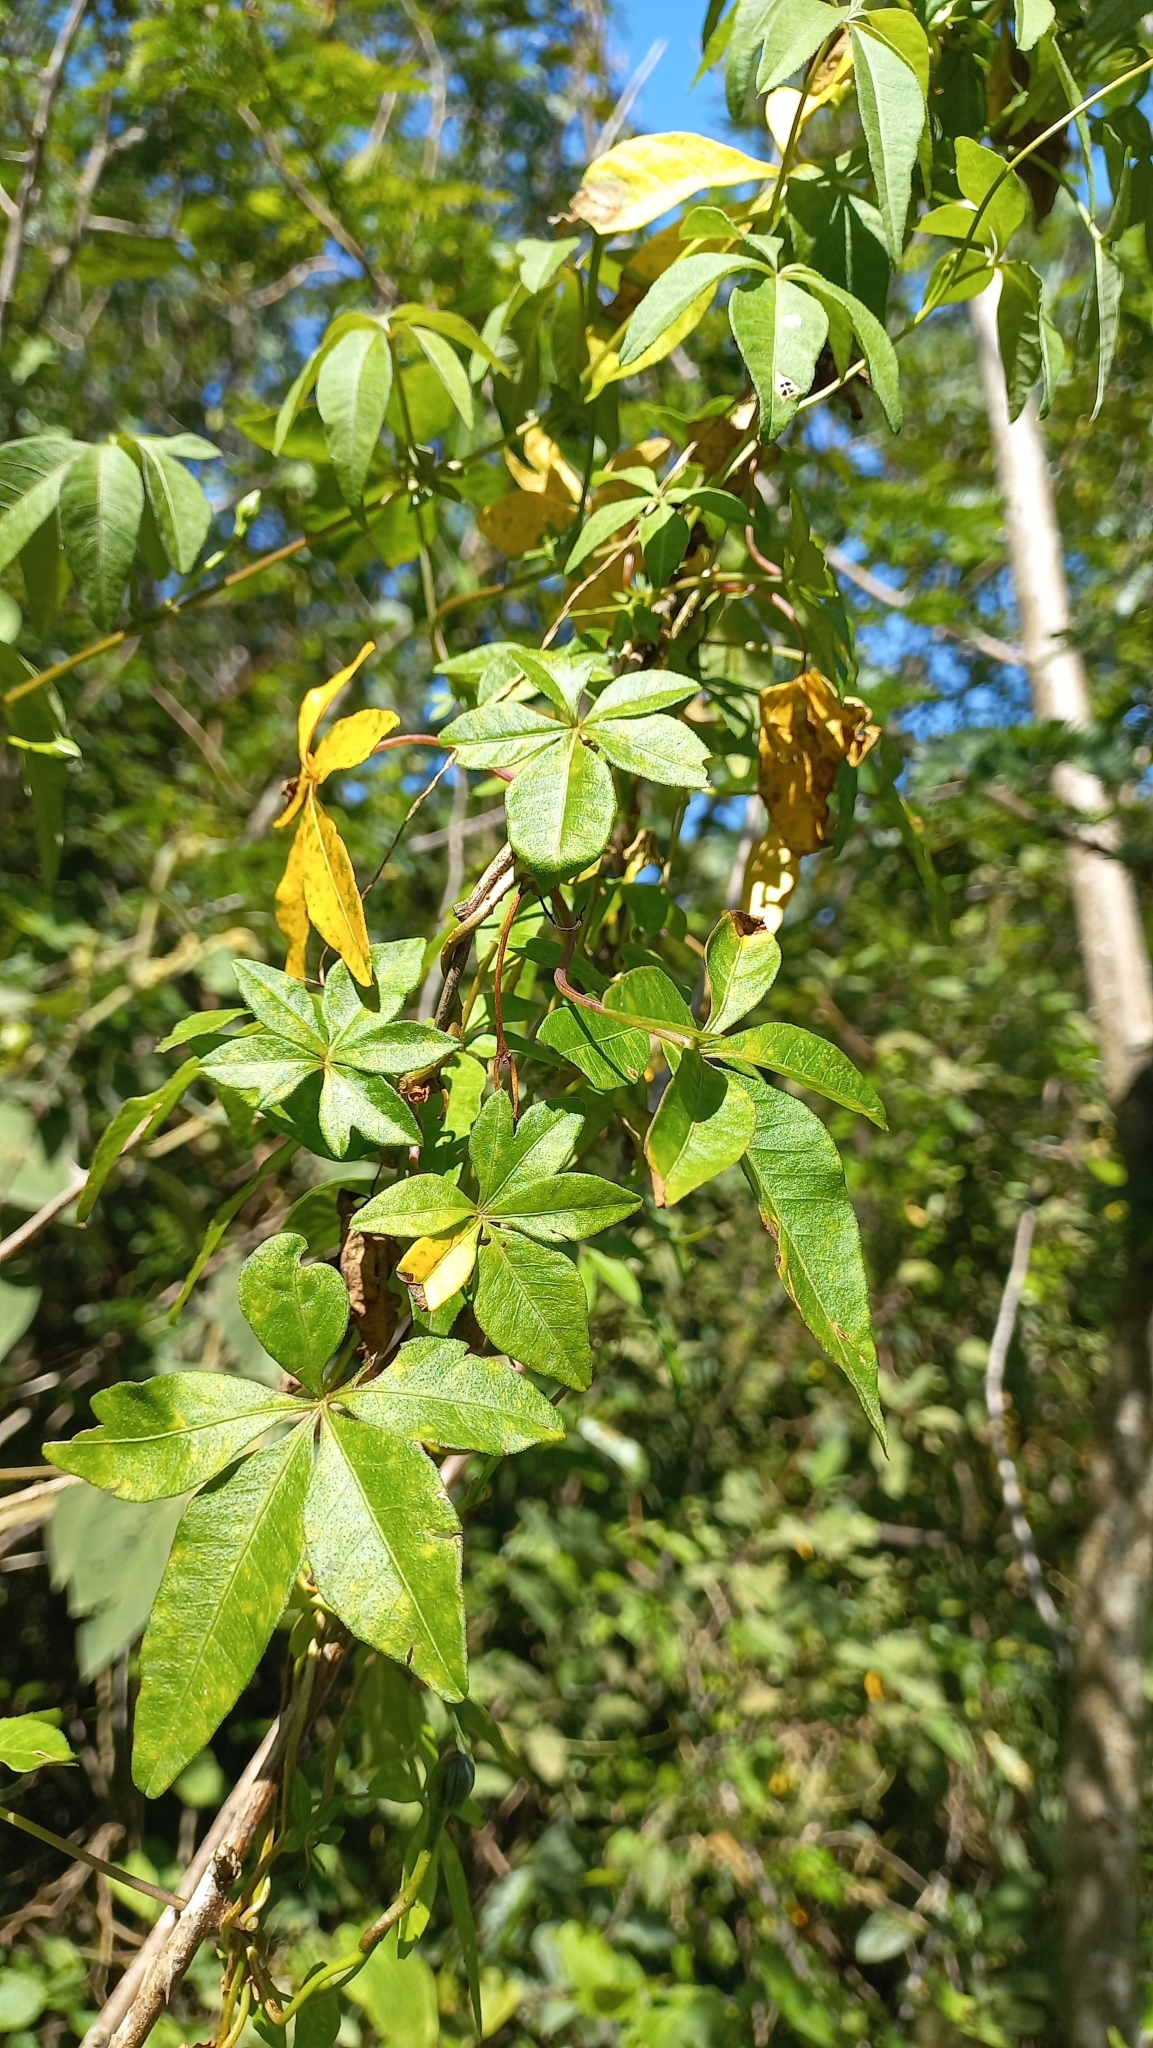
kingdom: Plantae
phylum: Tracheophyta
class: Magnoliopsida
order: Solanales
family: Convolvulaceae
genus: Ipomoea
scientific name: Ipomoea cairica
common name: Mile a minute vine
